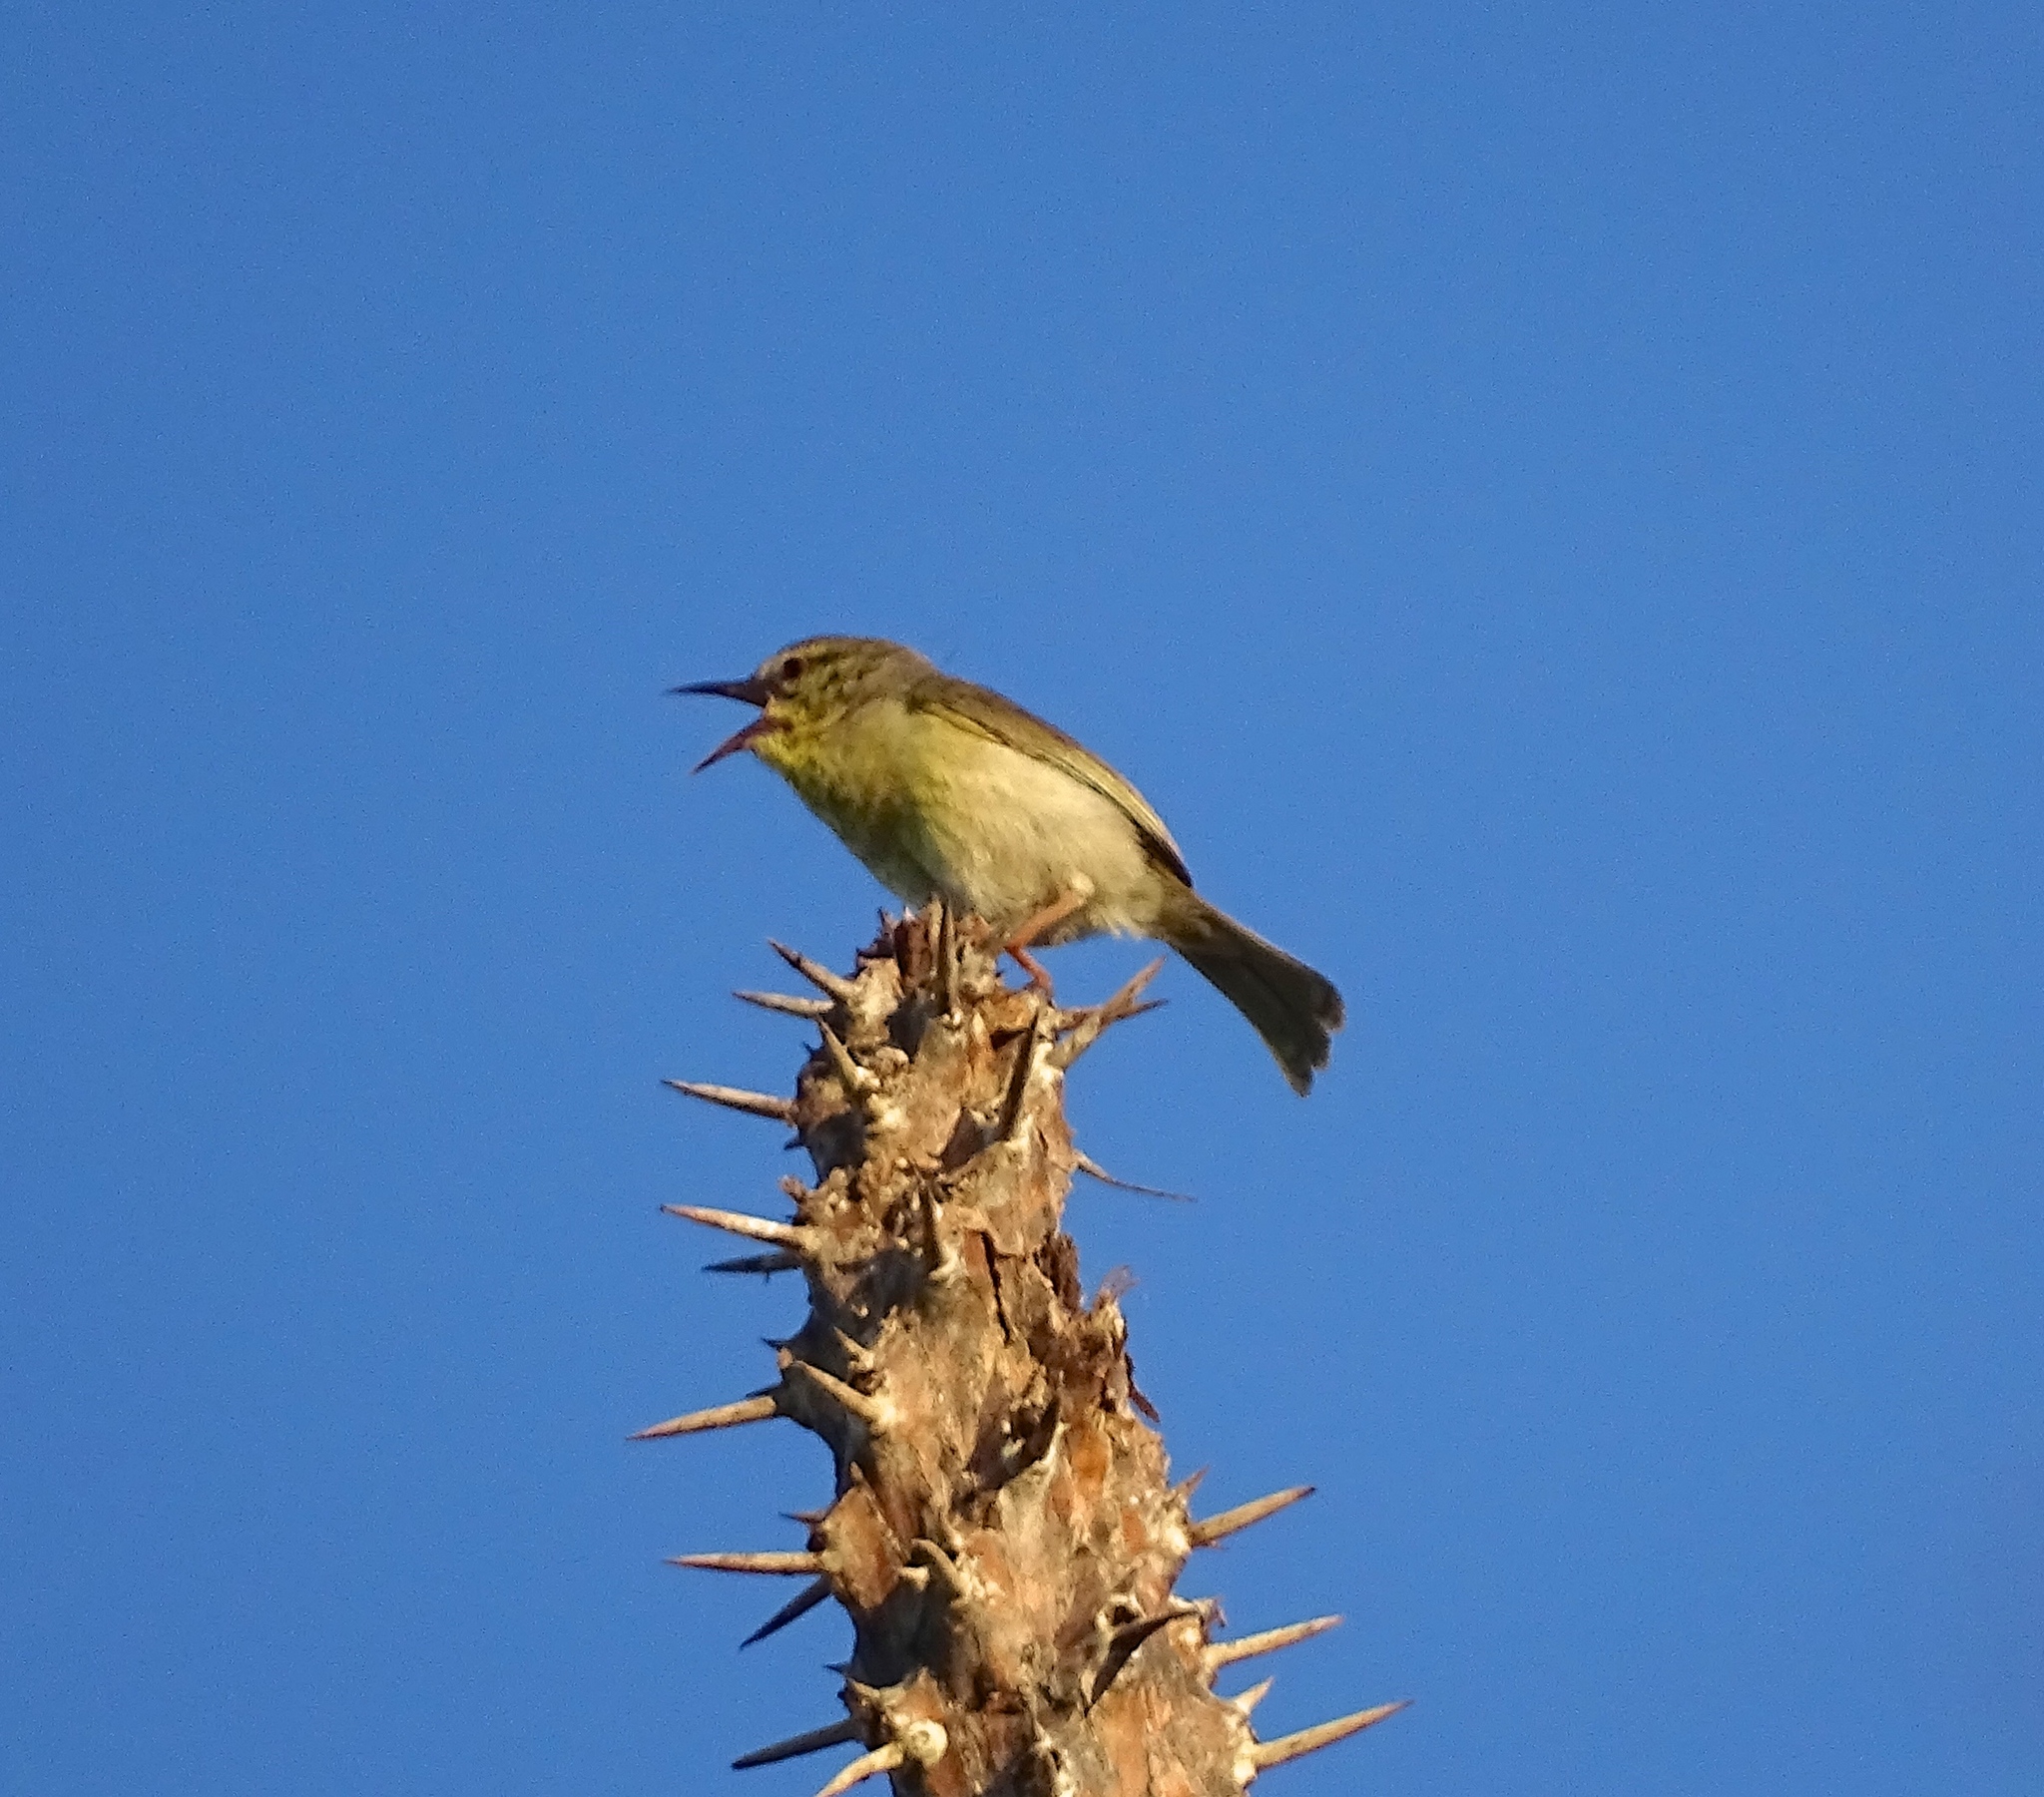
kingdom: Animalia
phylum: Chordata
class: Aves
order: Passeriformes
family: Cisticolidae
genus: Neomixis
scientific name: Neomixis striatigula
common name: Stripe-throated jery
